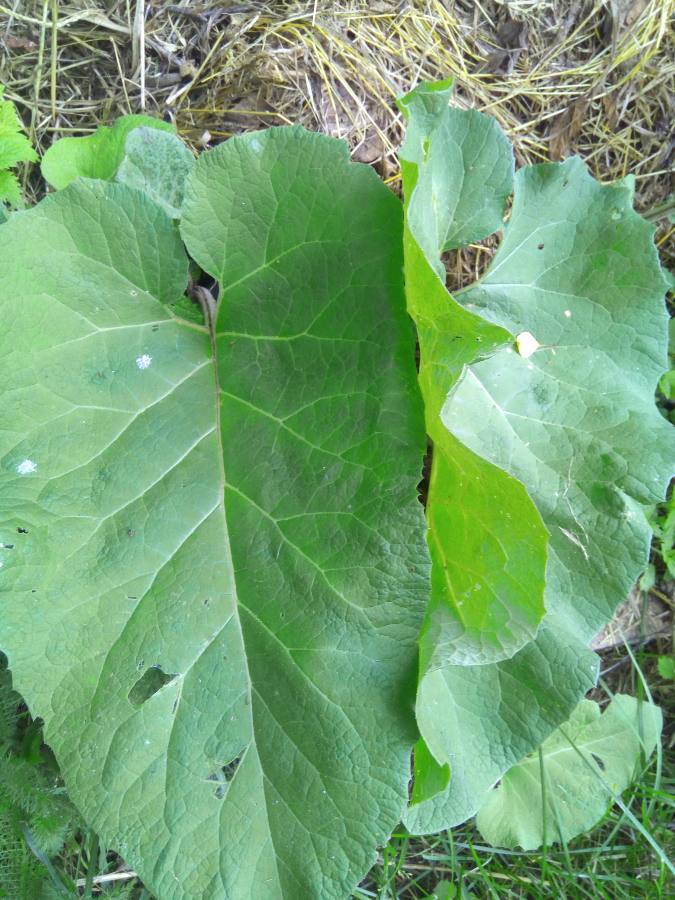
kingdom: Plantae
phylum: Tracheophyta
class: Magnoliopsida
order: Asterales
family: Asteraceae
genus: Arctium
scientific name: Arctium
